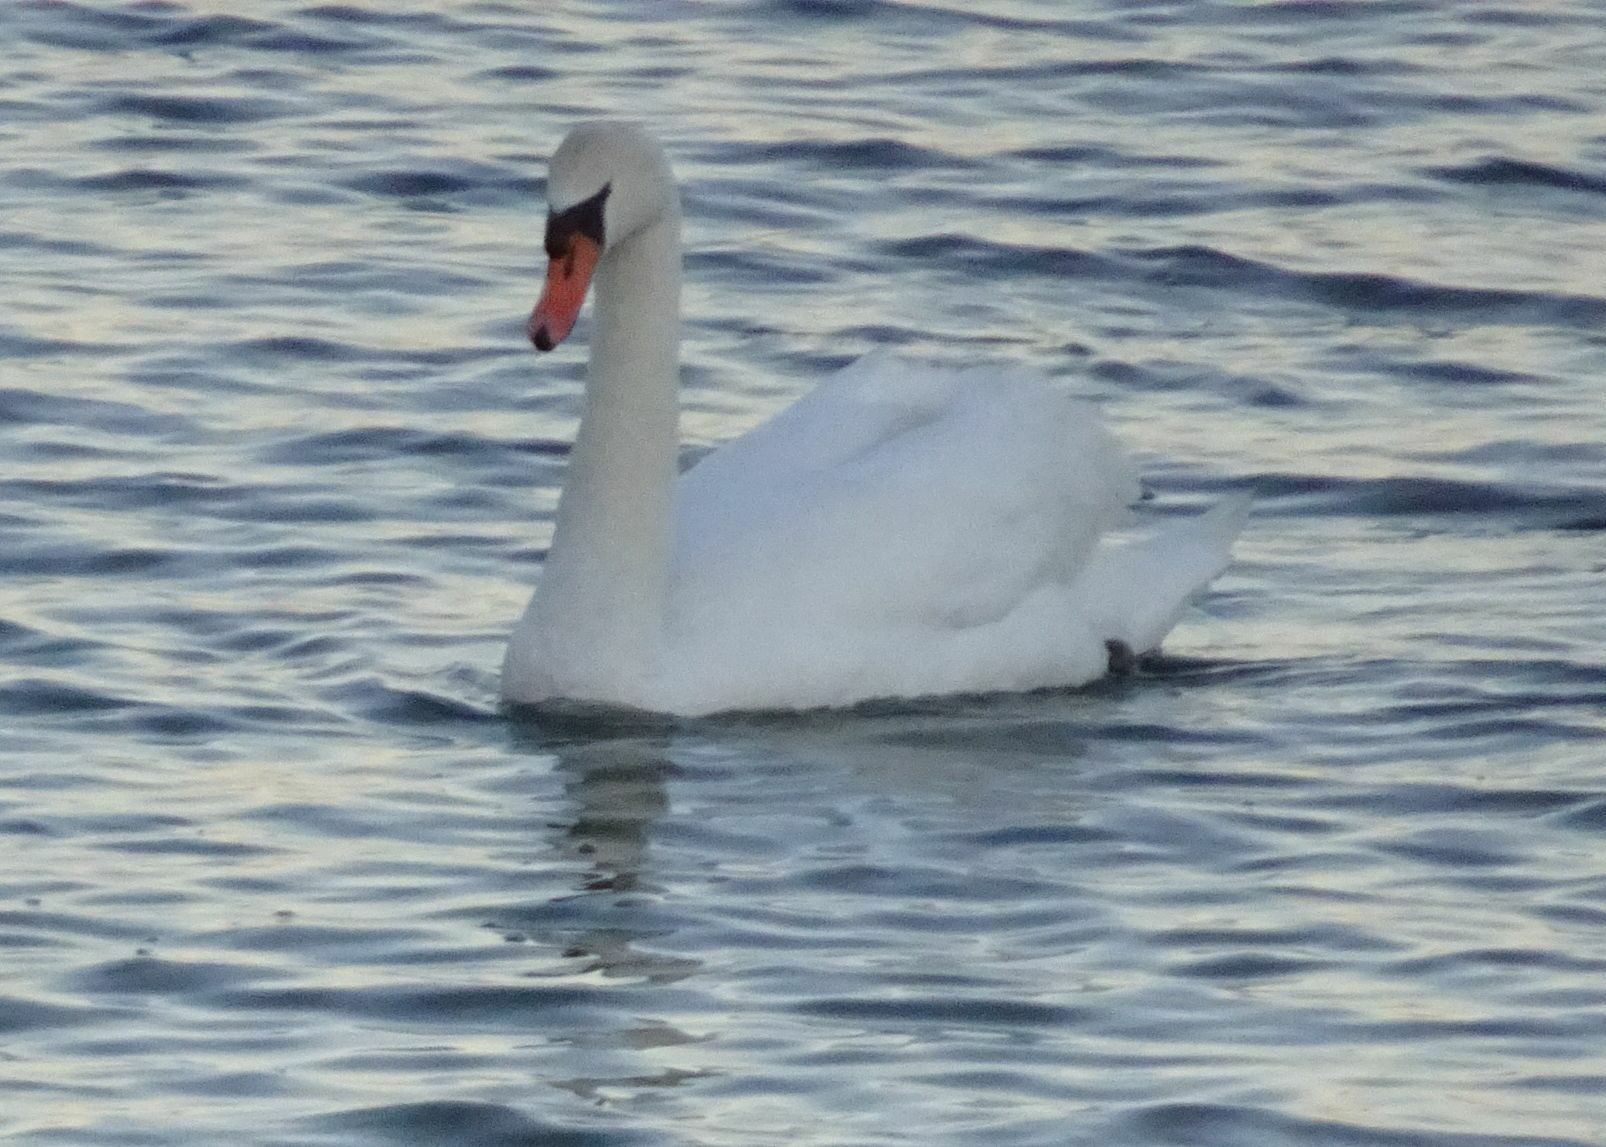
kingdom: Animalia
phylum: Chordata
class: Aves
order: Anseriformes
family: Anatidae
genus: Cygnus
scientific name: Cygnus olor
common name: Mute swan
